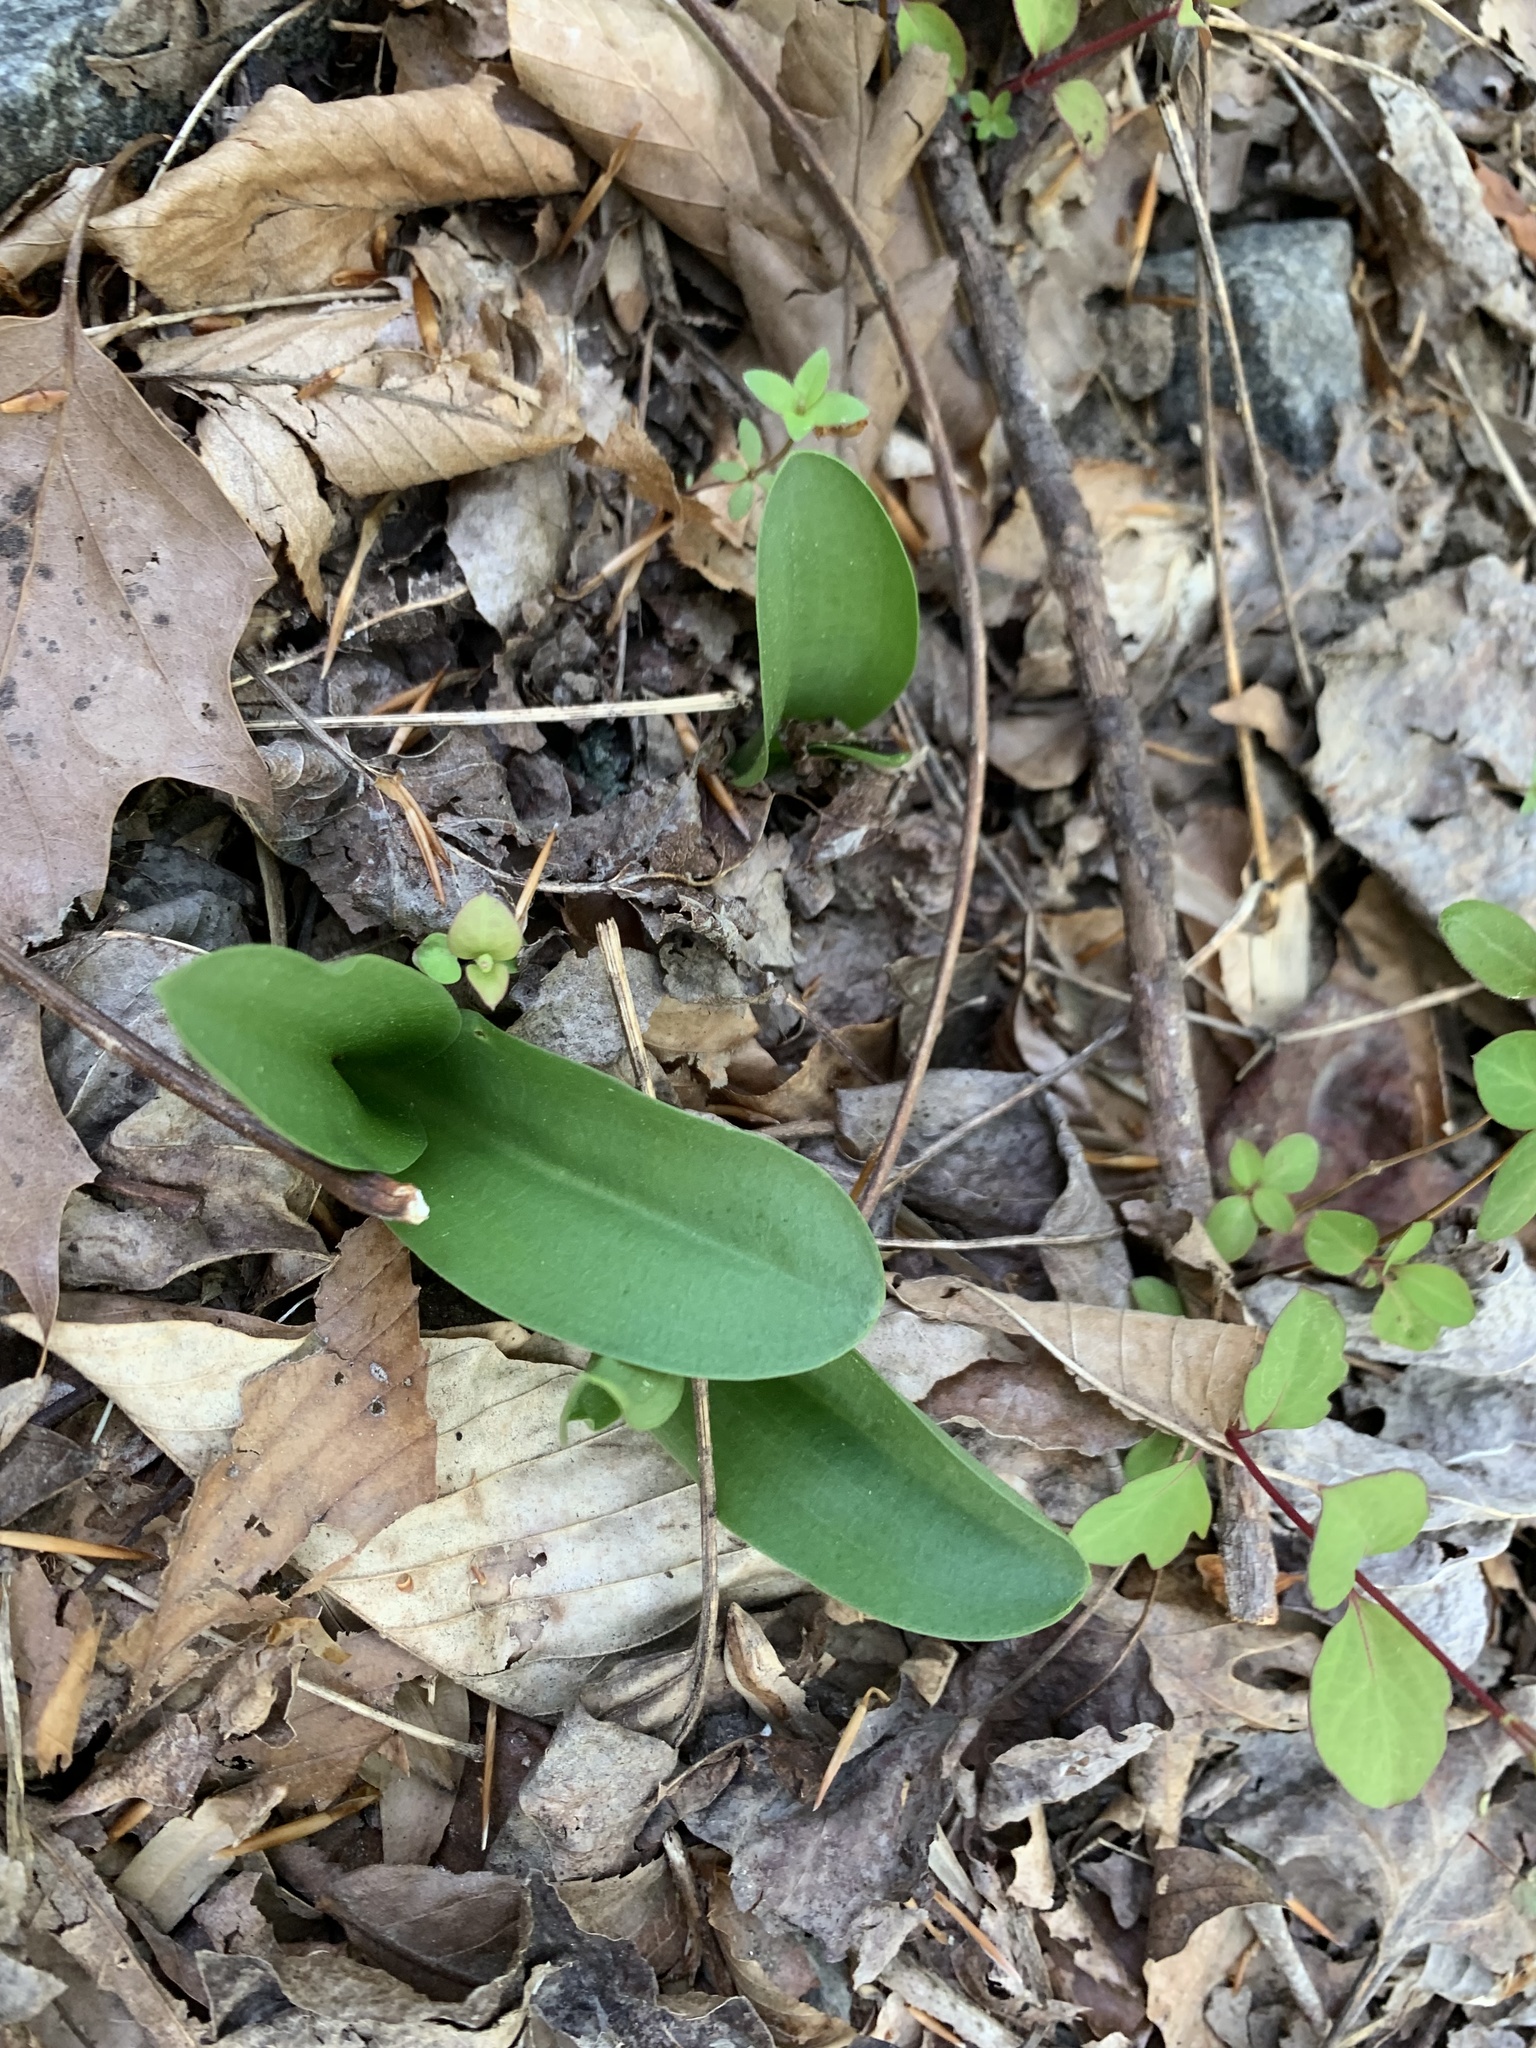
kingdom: Plantae
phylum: Tracheophyta
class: Liliopsida
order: Asparagales
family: Orchidaceae
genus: Galearis
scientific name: Galearis spectabilis
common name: Purple-hooded orchis
